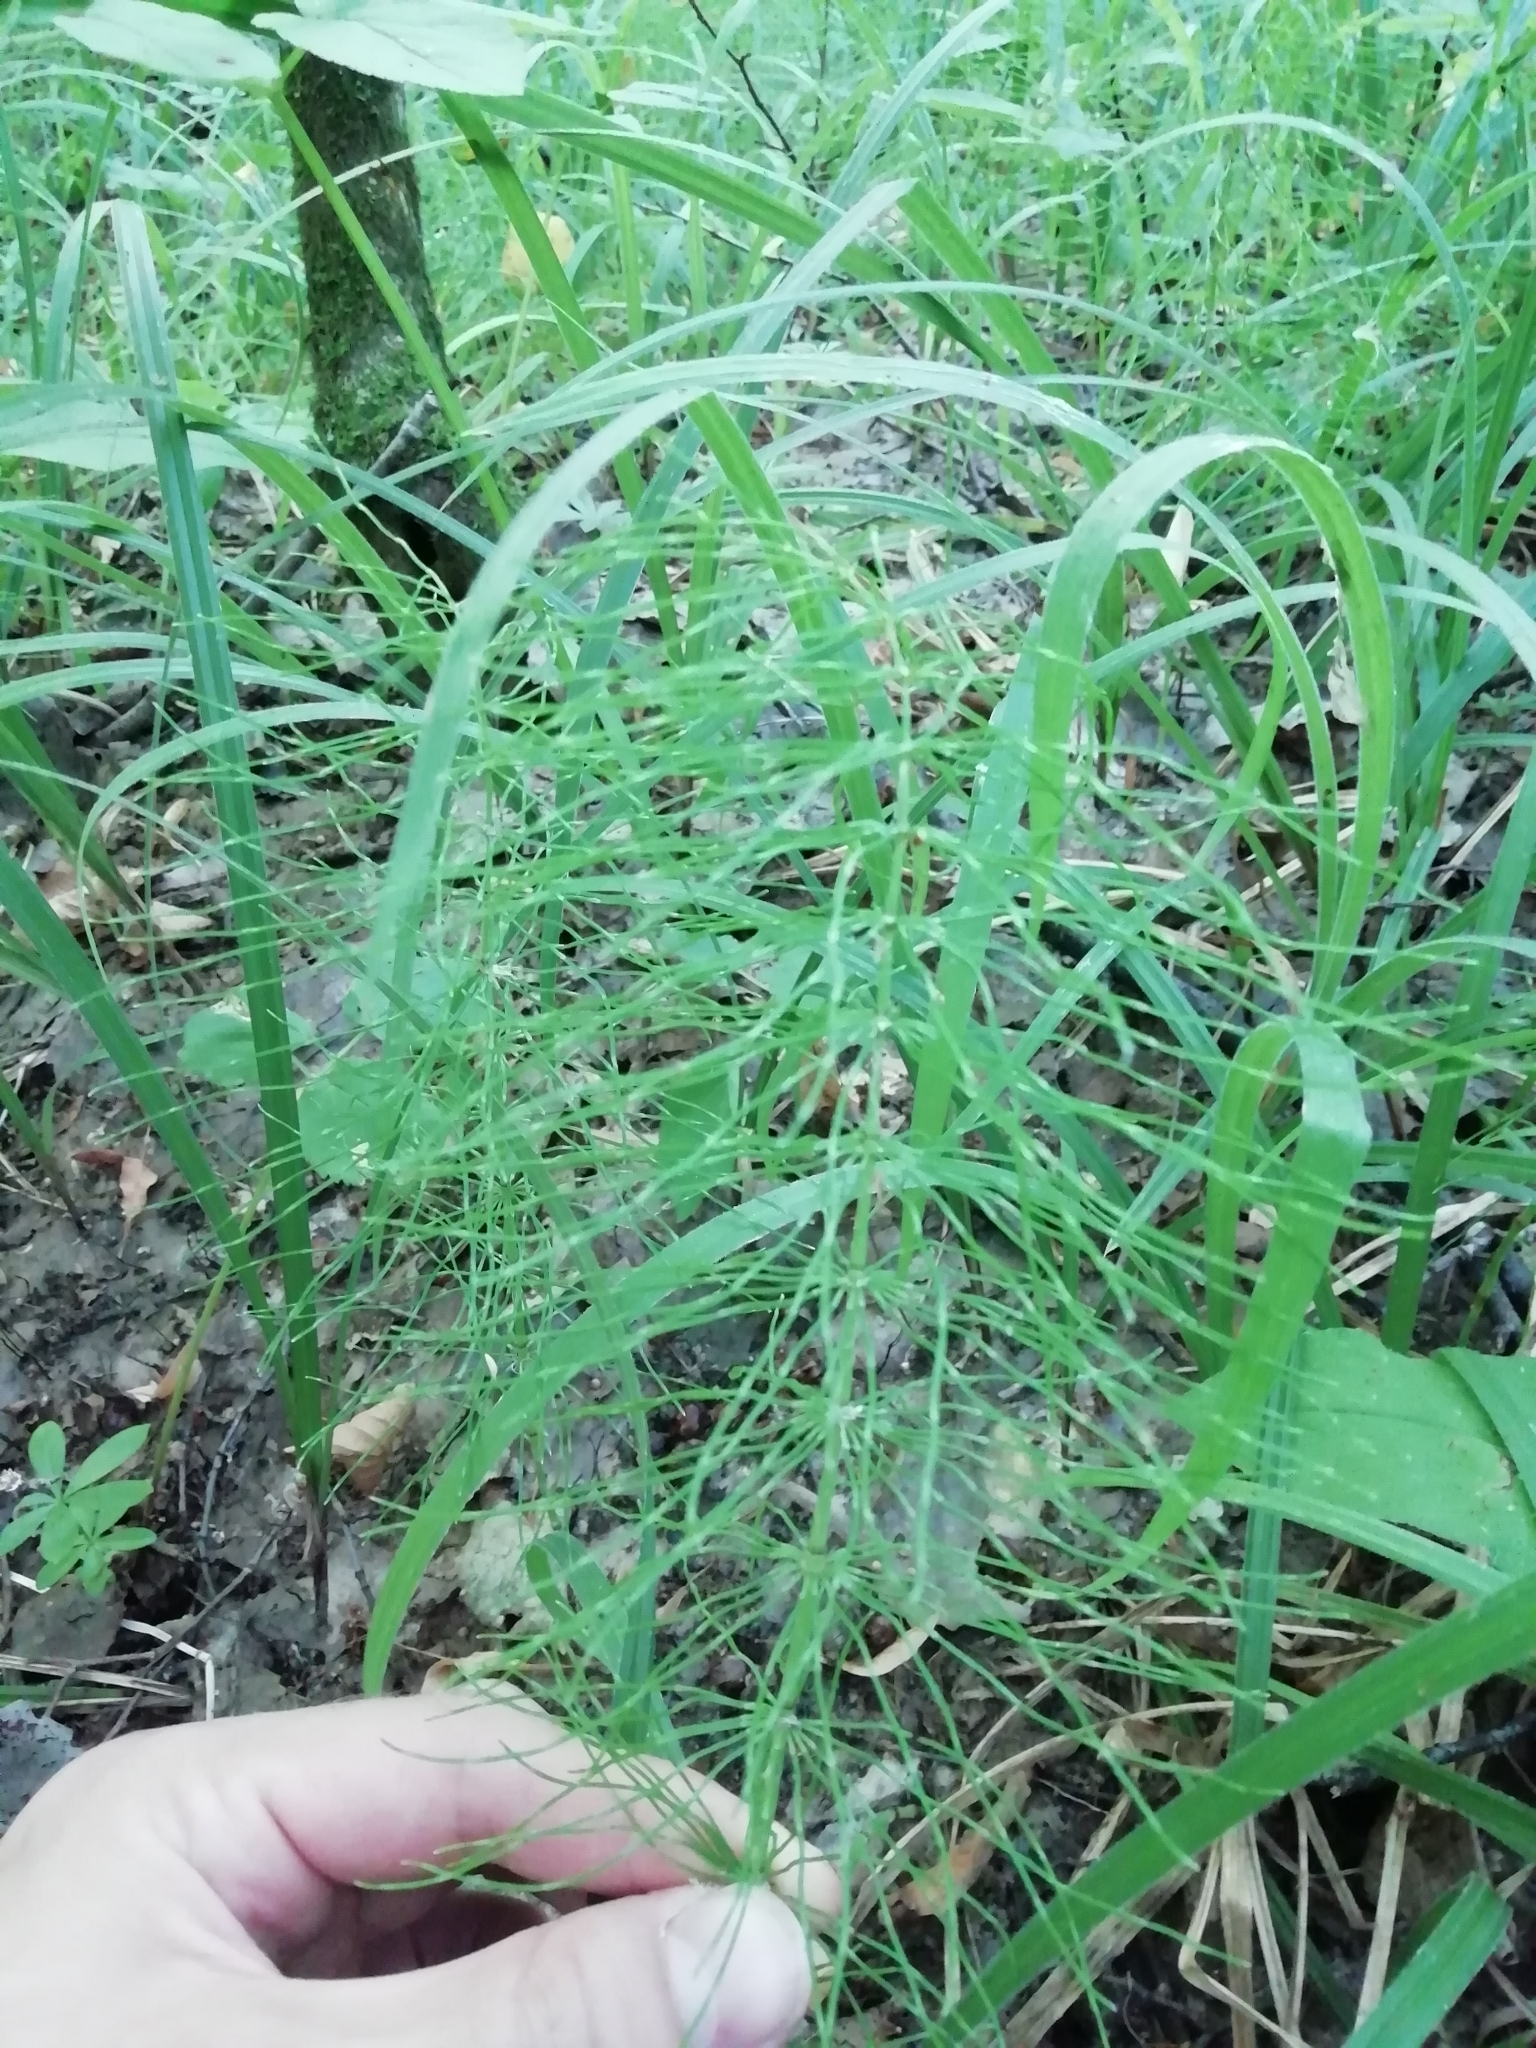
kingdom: Plantae
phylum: Tracheophyta
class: Polypodiopsida
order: Equisetales
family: Equisetaceae
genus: Equisetum
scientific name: Equisetum pratense
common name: Meadow horsetail
